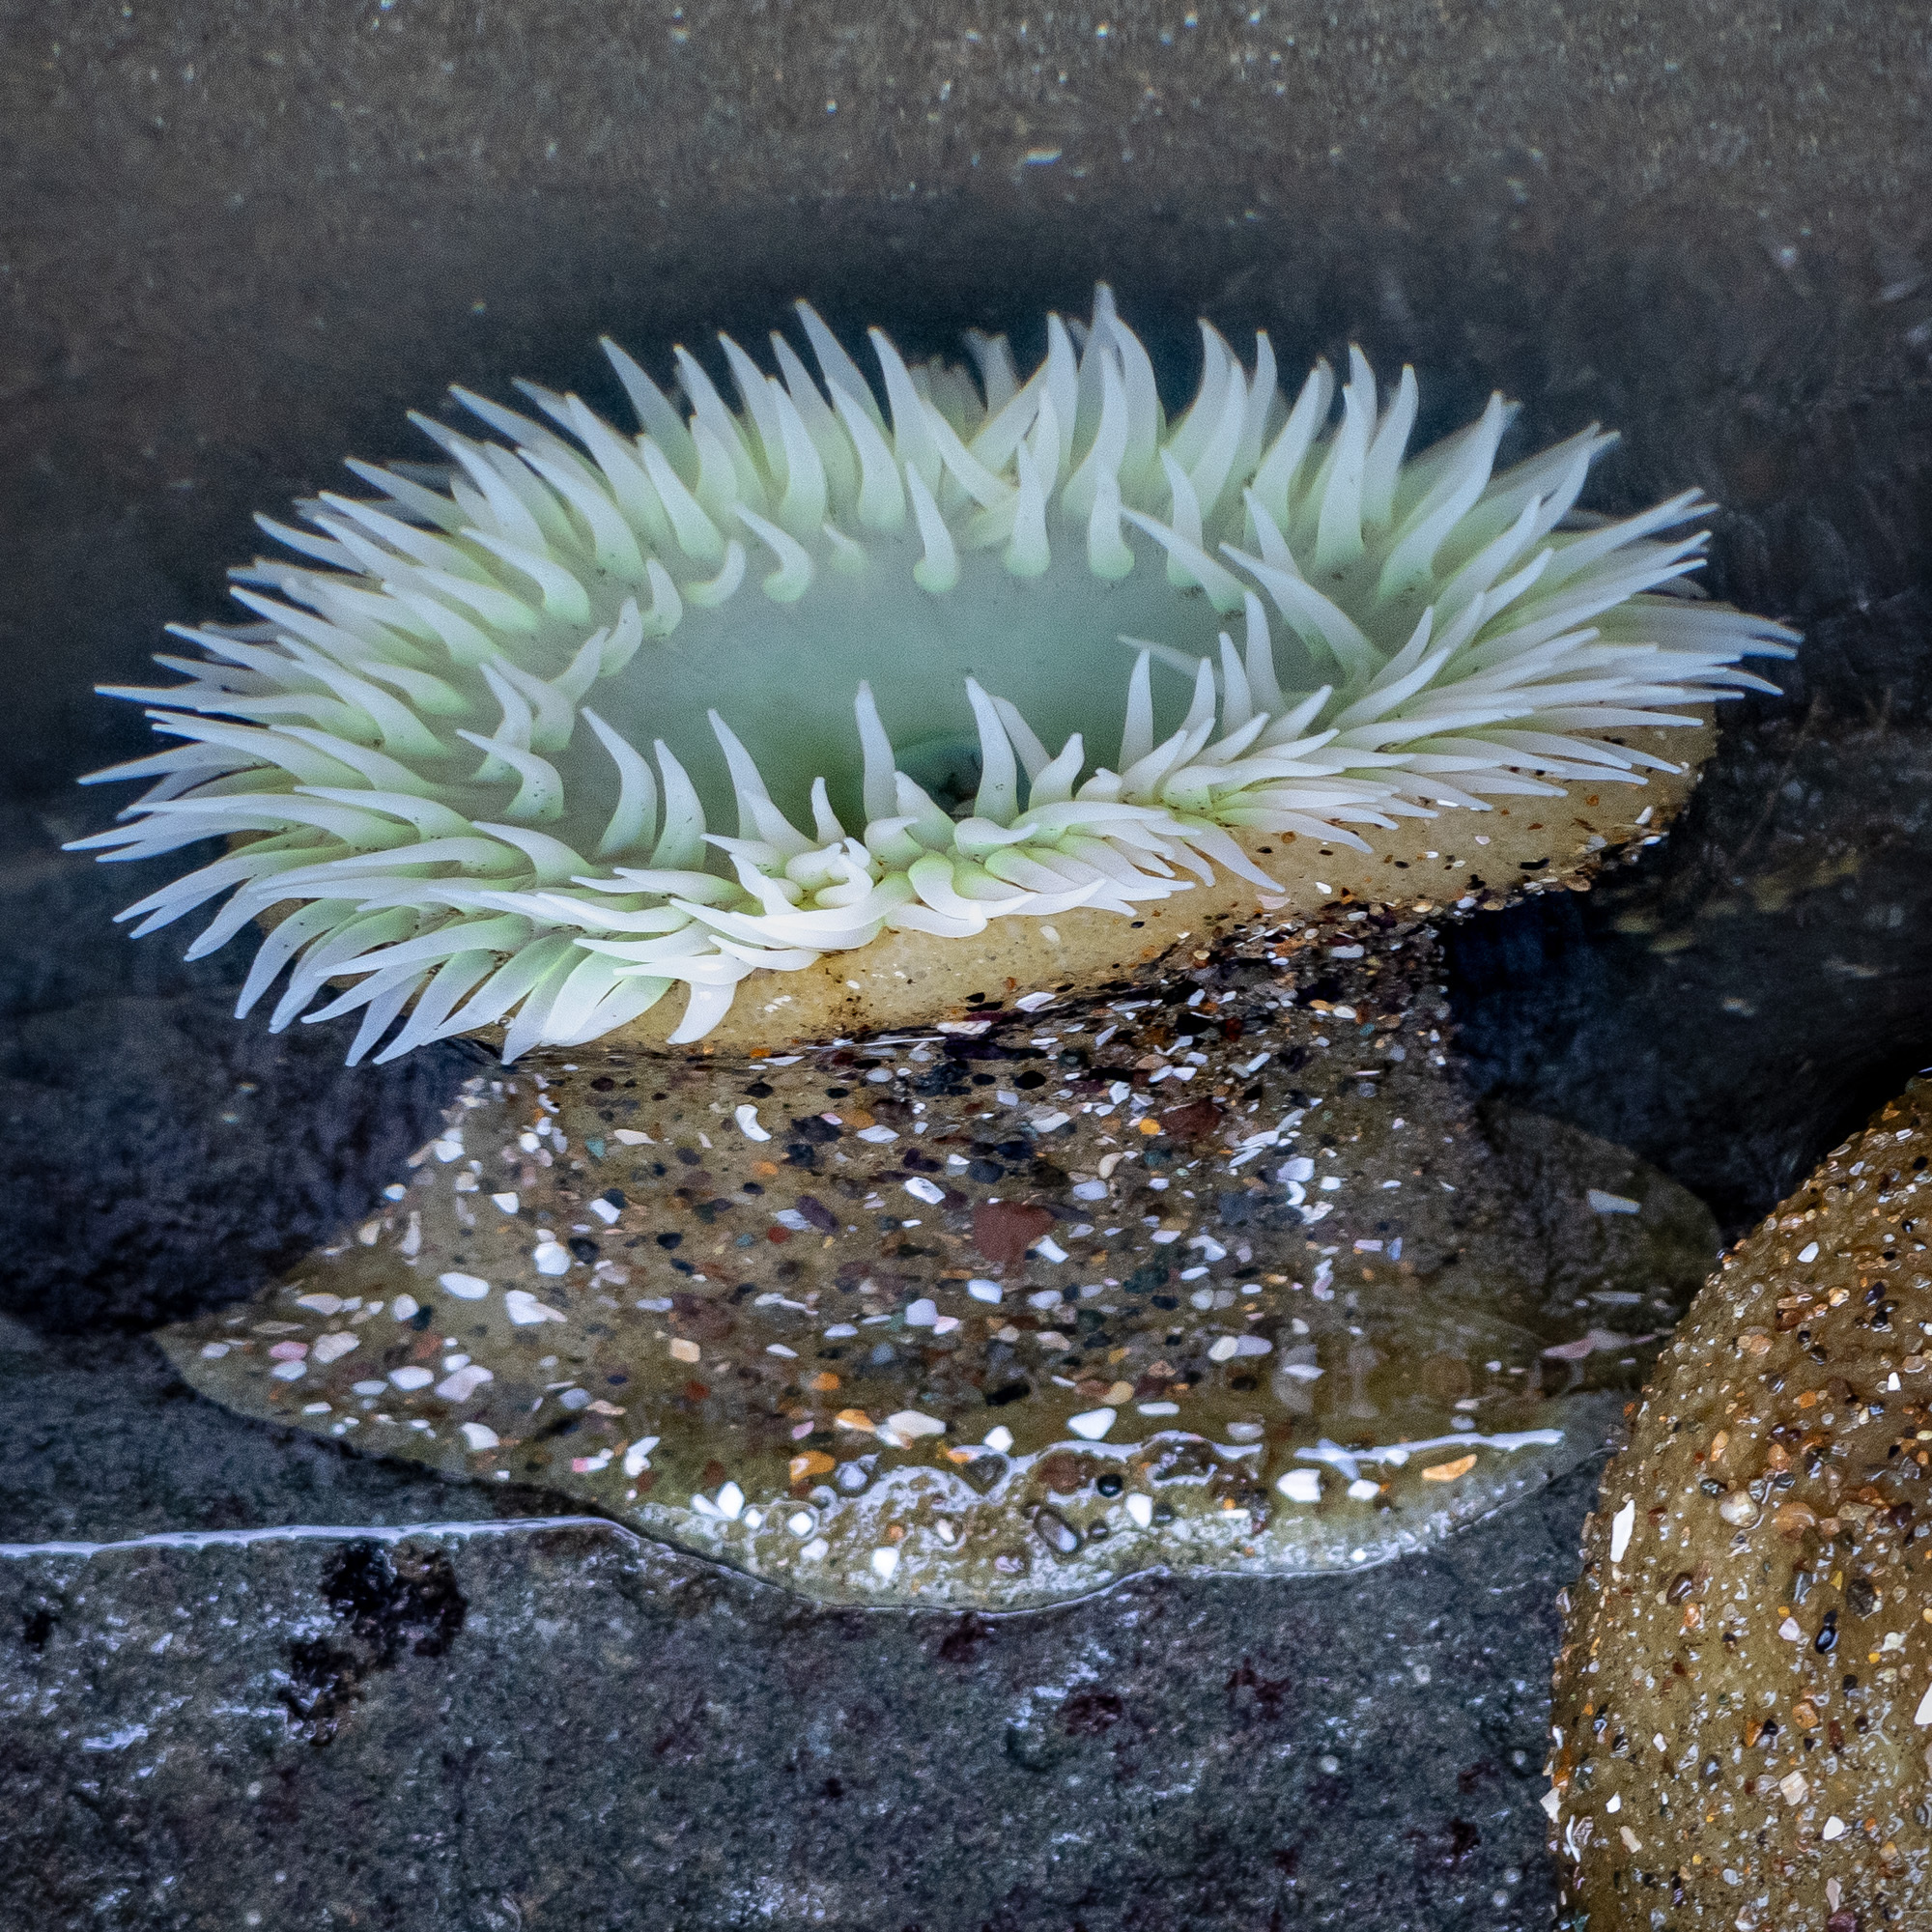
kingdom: Animalia
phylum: Cnidaria
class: Anthozoa
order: Actiniaria
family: Actiniidae
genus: Anthopleura
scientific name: Anthopleura xanthogrammica
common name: Giant green anemone
